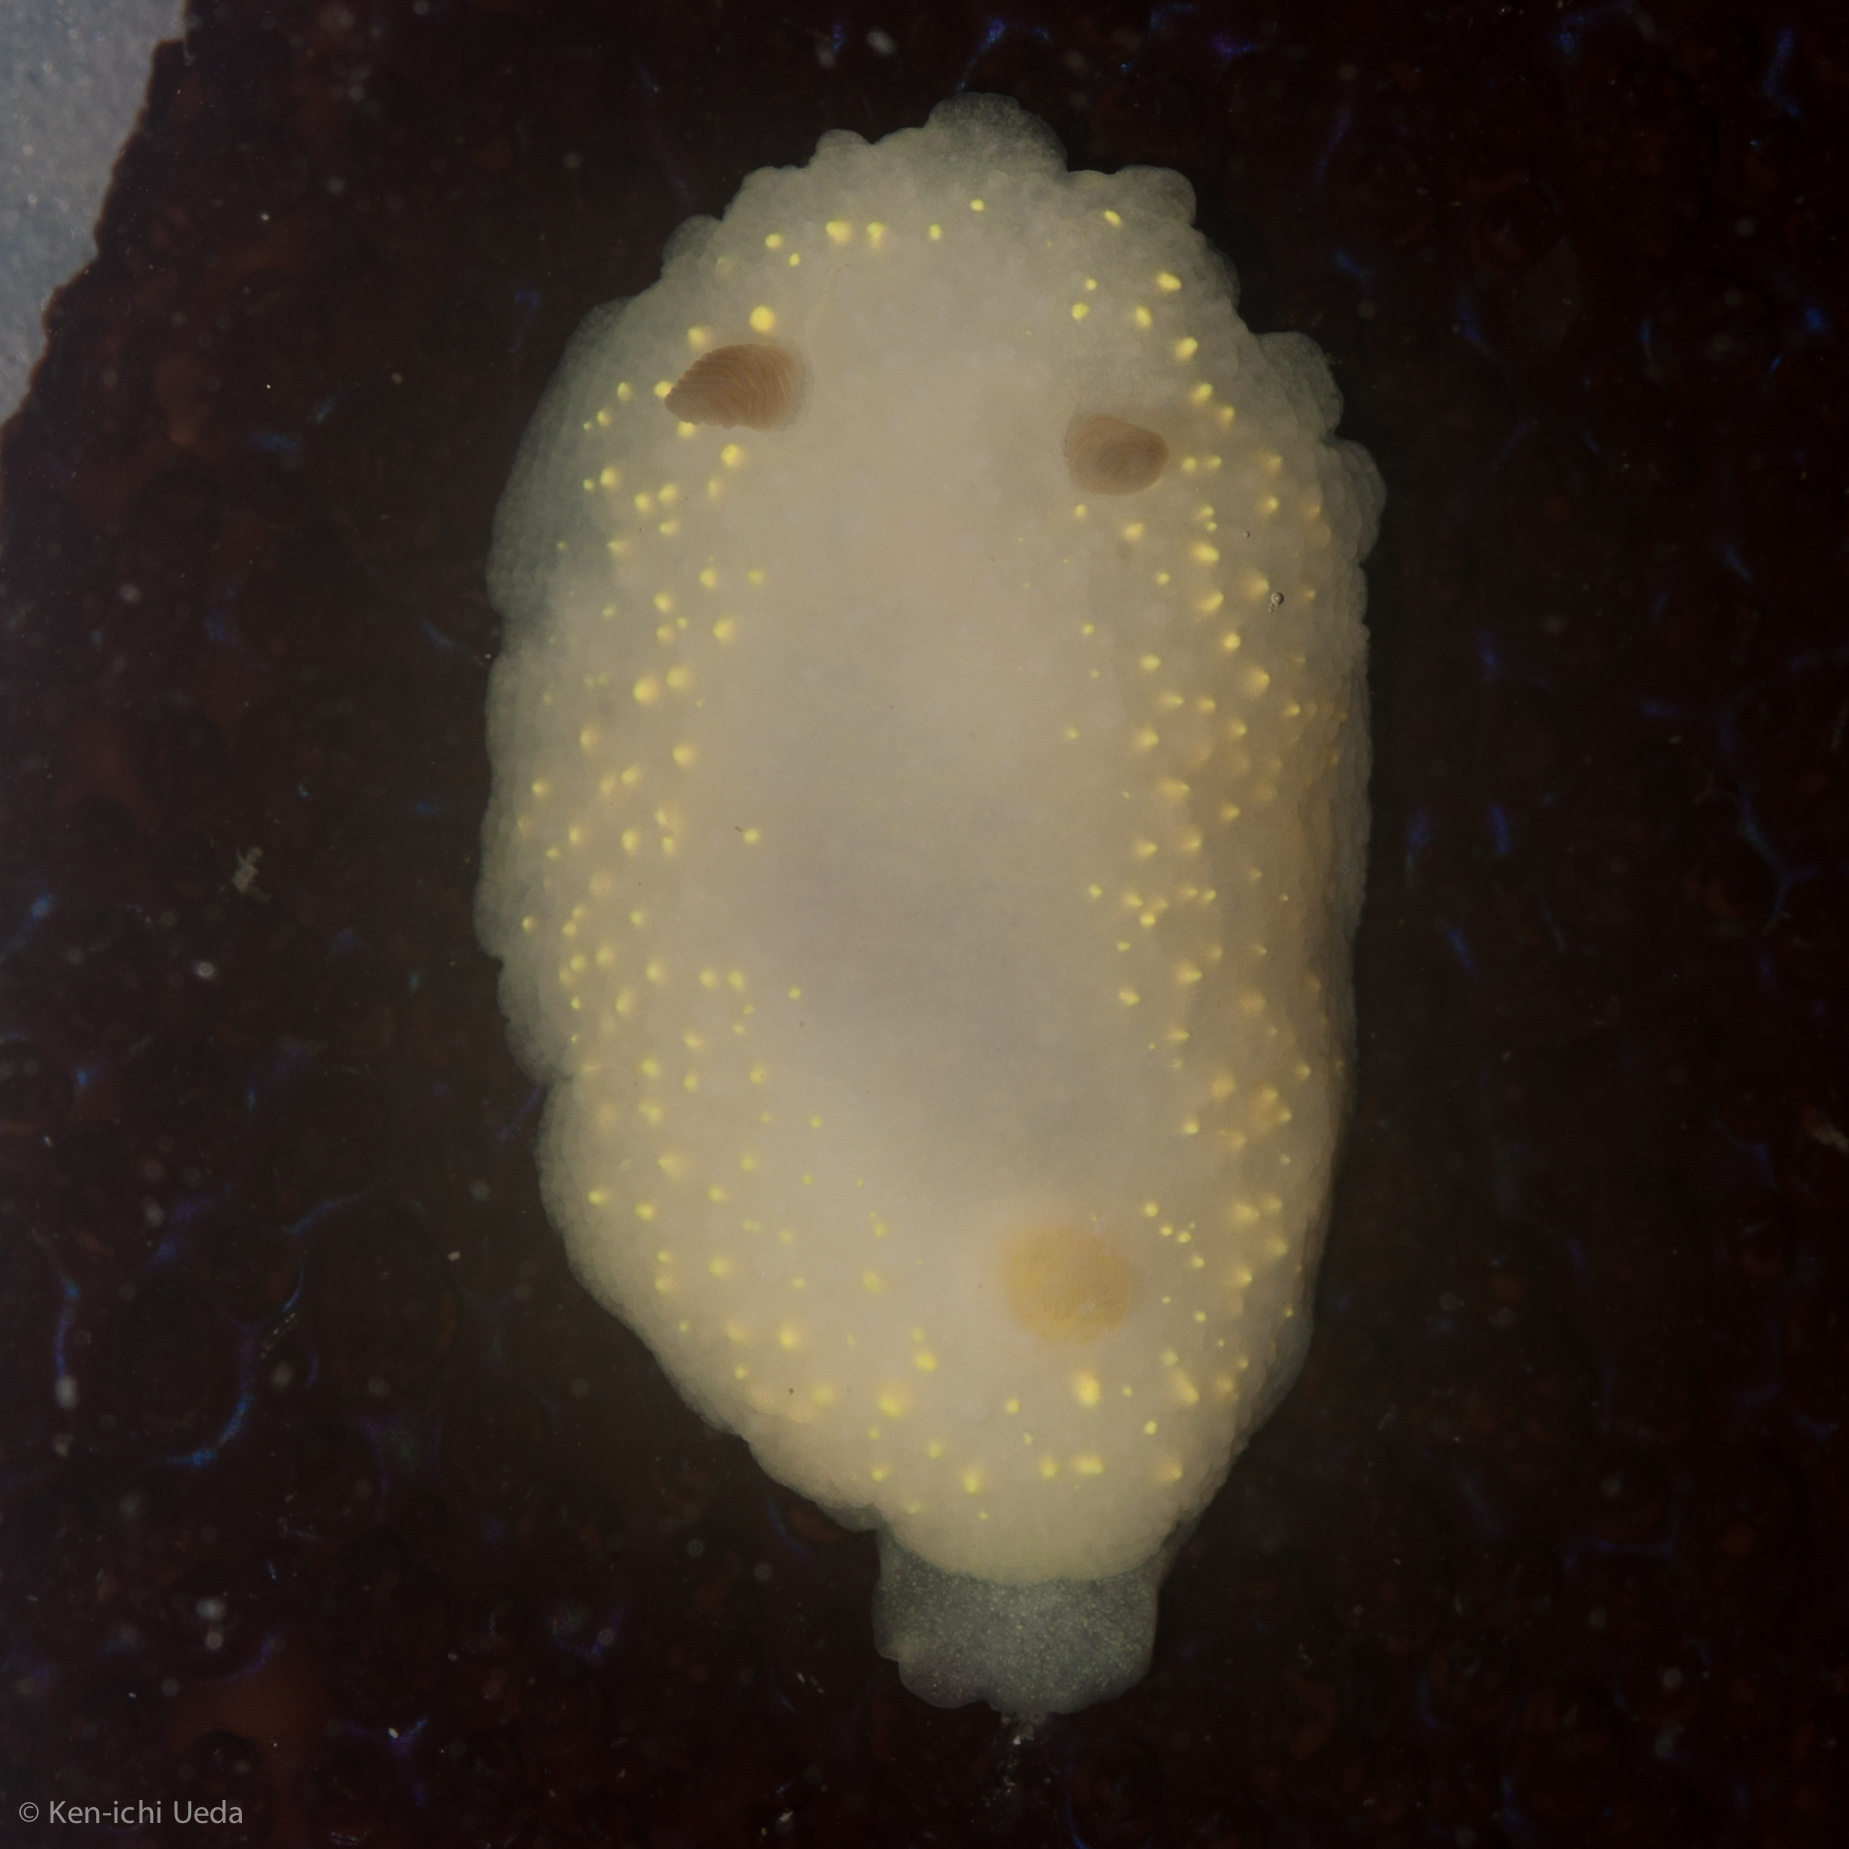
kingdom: Animalia
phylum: Mollusca
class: Gastropoda
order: Nudibranchia
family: Cadlinidae
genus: Cadlina
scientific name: Cadlina modesta
